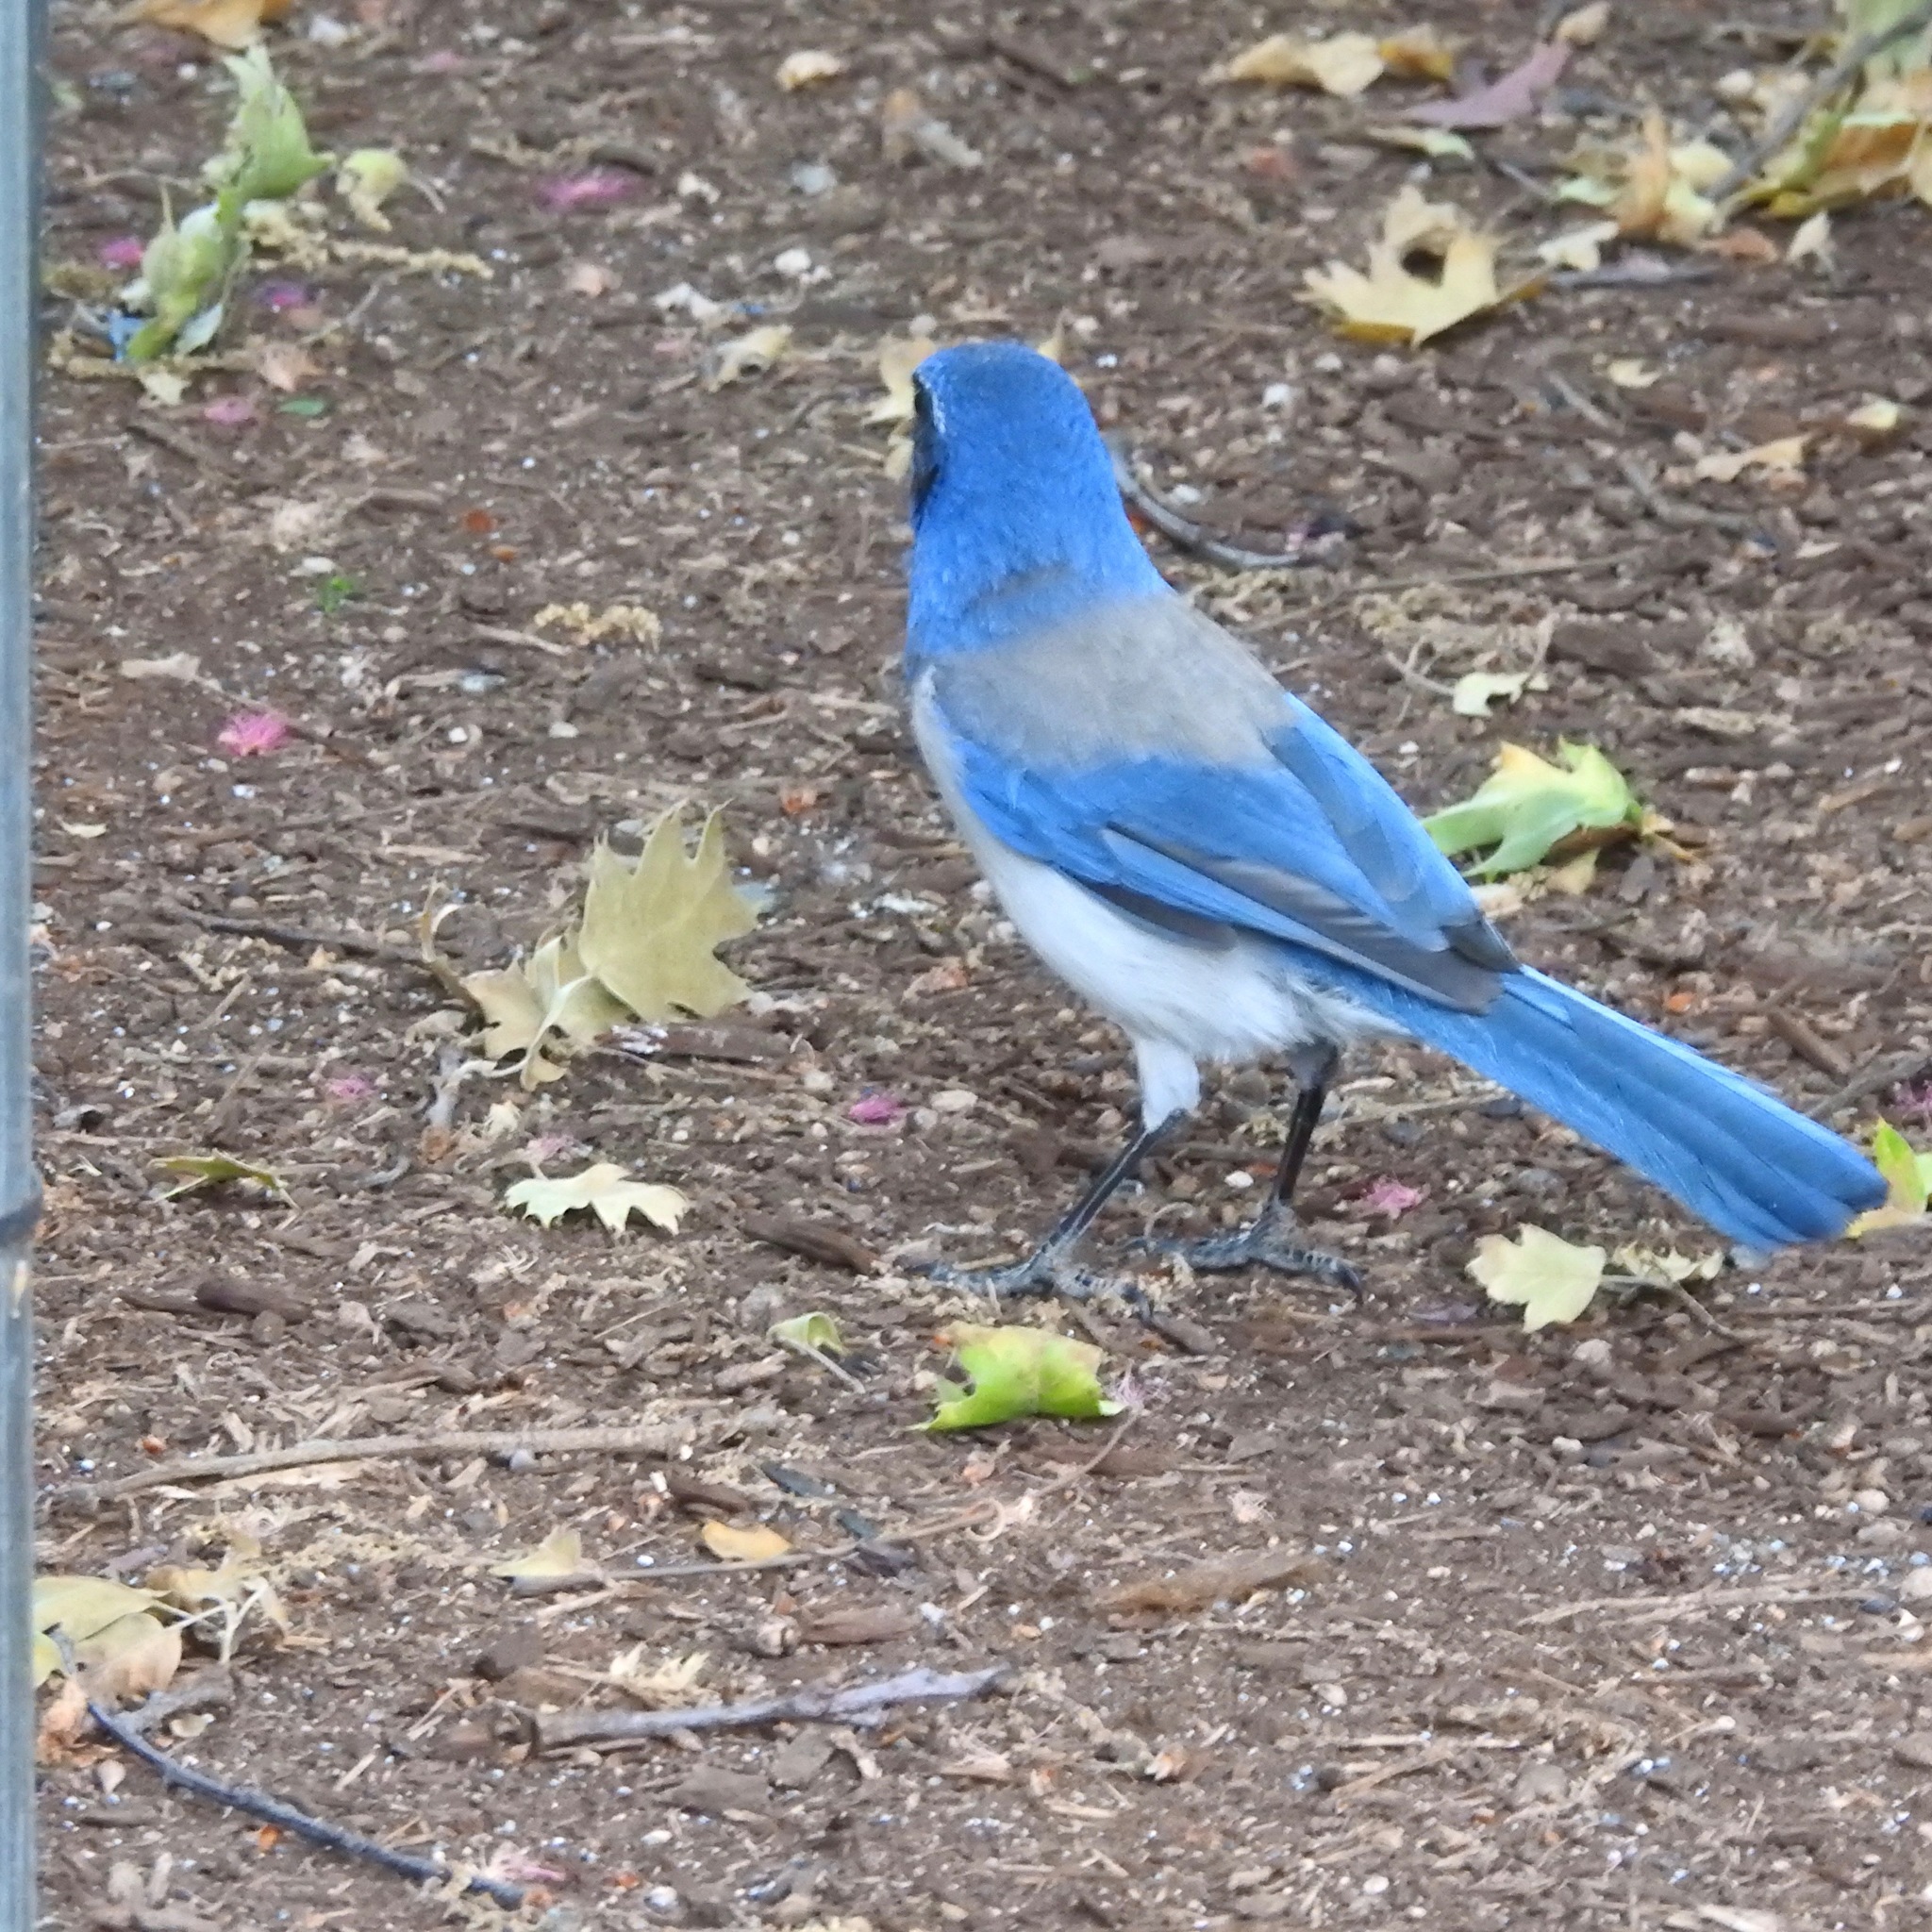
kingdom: Animalia
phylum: Chordata
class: Aves
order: Passeriformes
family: Corvidae
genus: Aphelocoma
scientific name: Aphelocoma californica
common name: California scrub-jay
